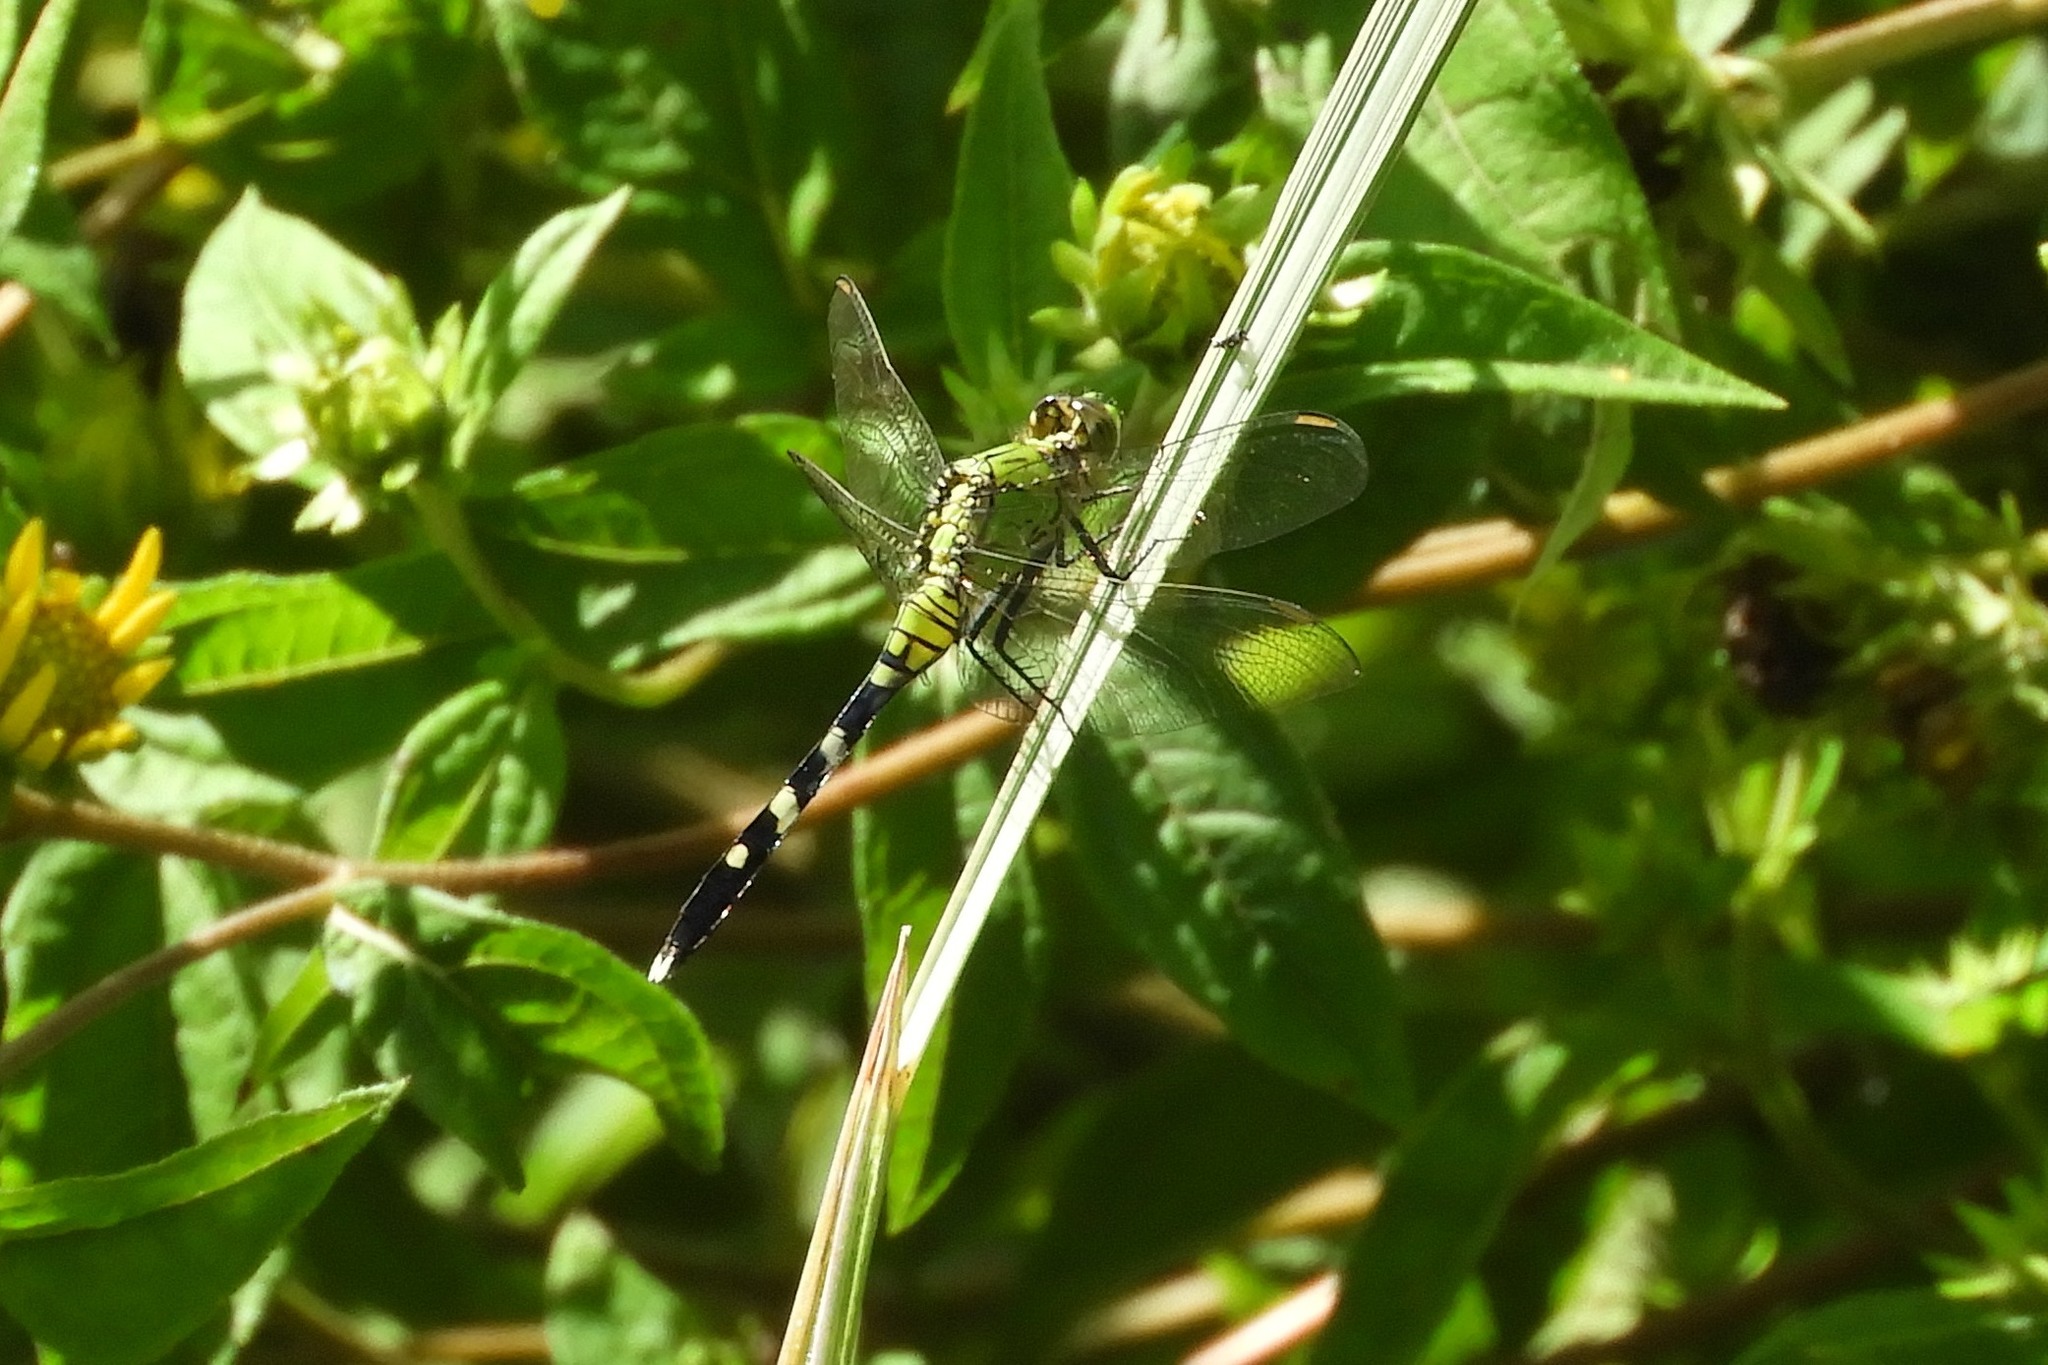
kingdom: Animalia
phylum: Arthropoda
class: Insecta
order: Odonata
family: Libellulidae
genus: Erythemis
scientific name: Erythemis simplicicollis
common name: Eastern pondhawk
